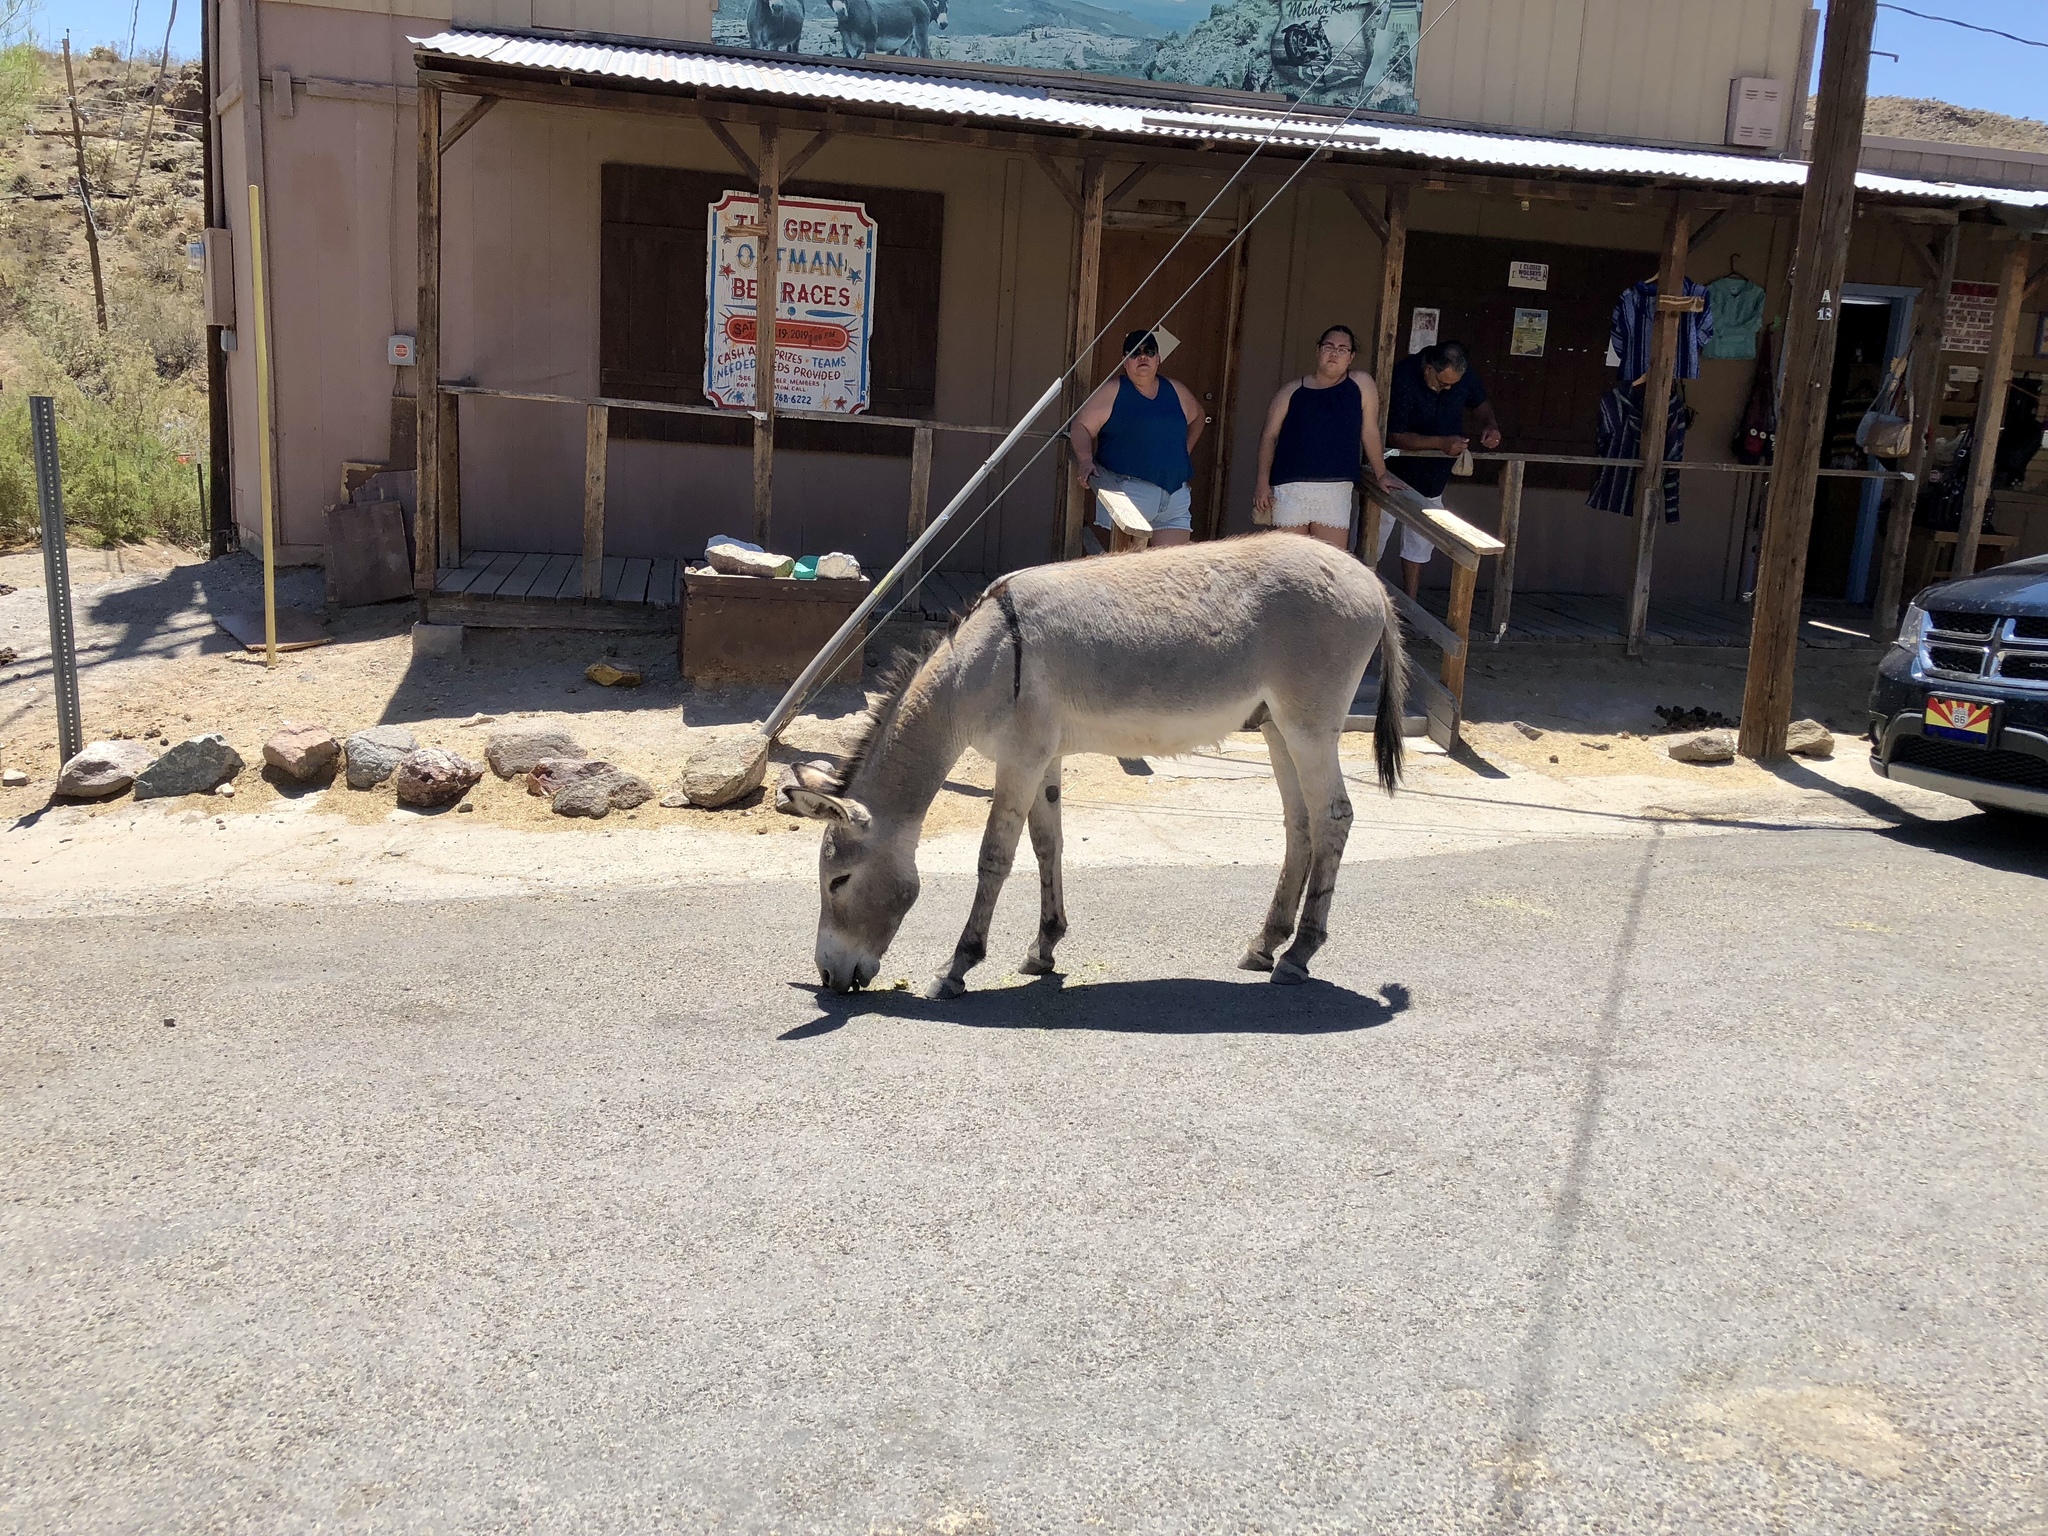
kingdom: Animalia
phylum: Chordata
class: Mammalia
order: Perissodactyla
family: Equidae
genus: Equus
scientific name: Equus asinus
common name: Ass
